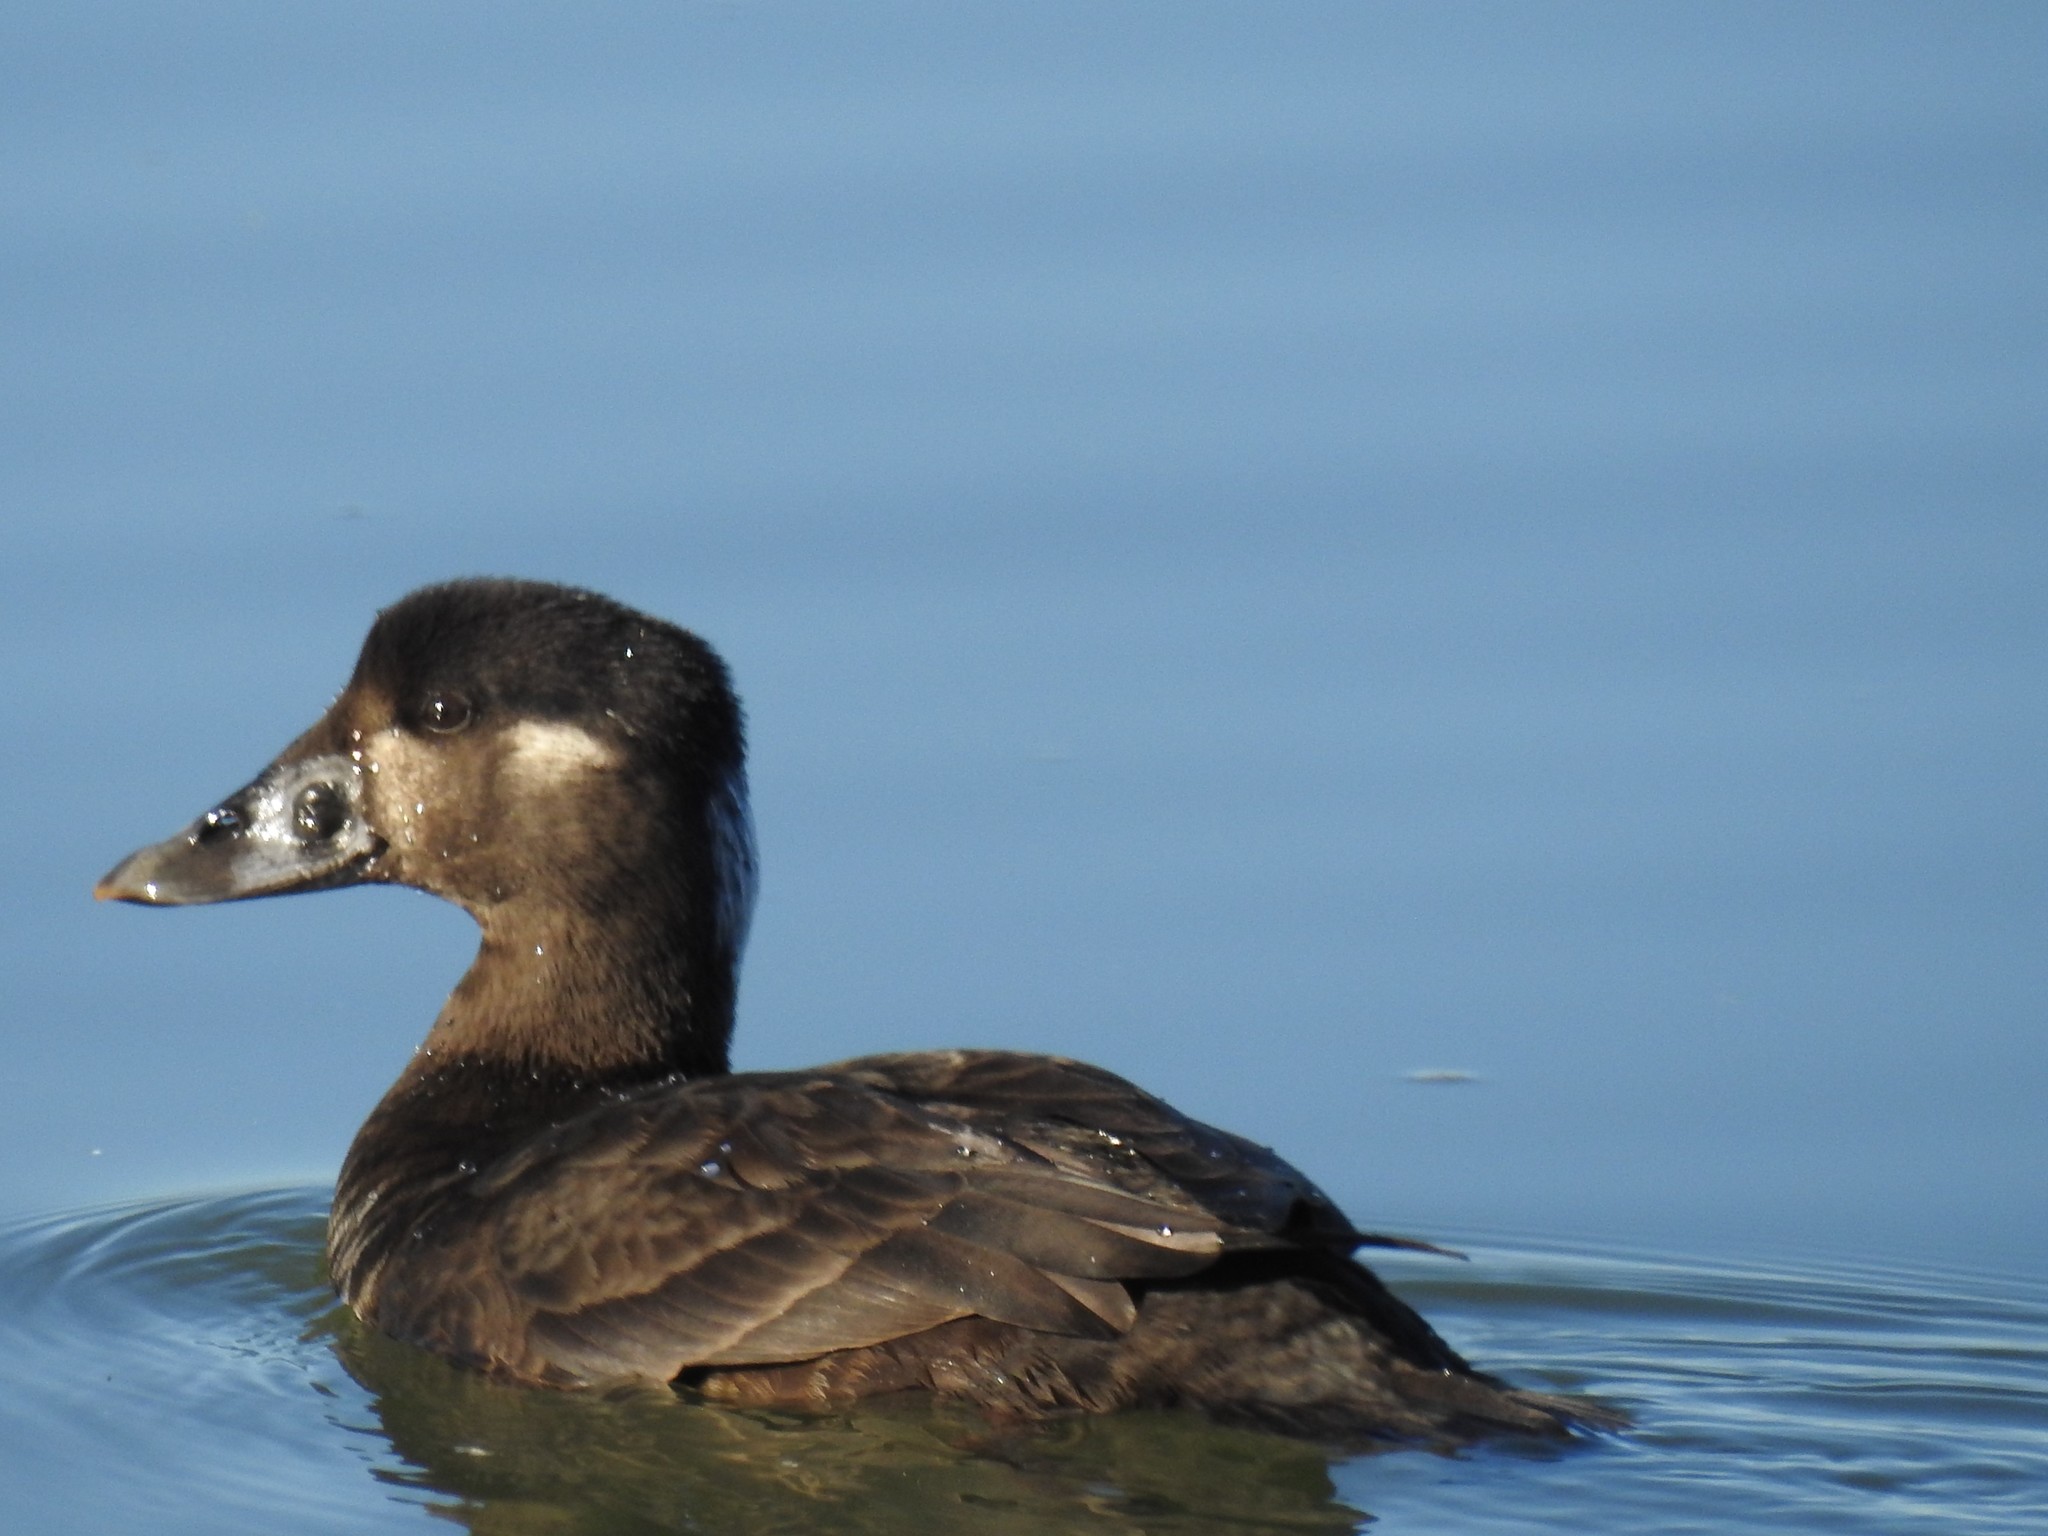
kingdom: Animalia
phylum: Chordata
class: Aves
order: Anseriformes
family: Anatidae
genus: Melanitta
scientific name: Melanitta perspicillata
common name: Surf scoter
